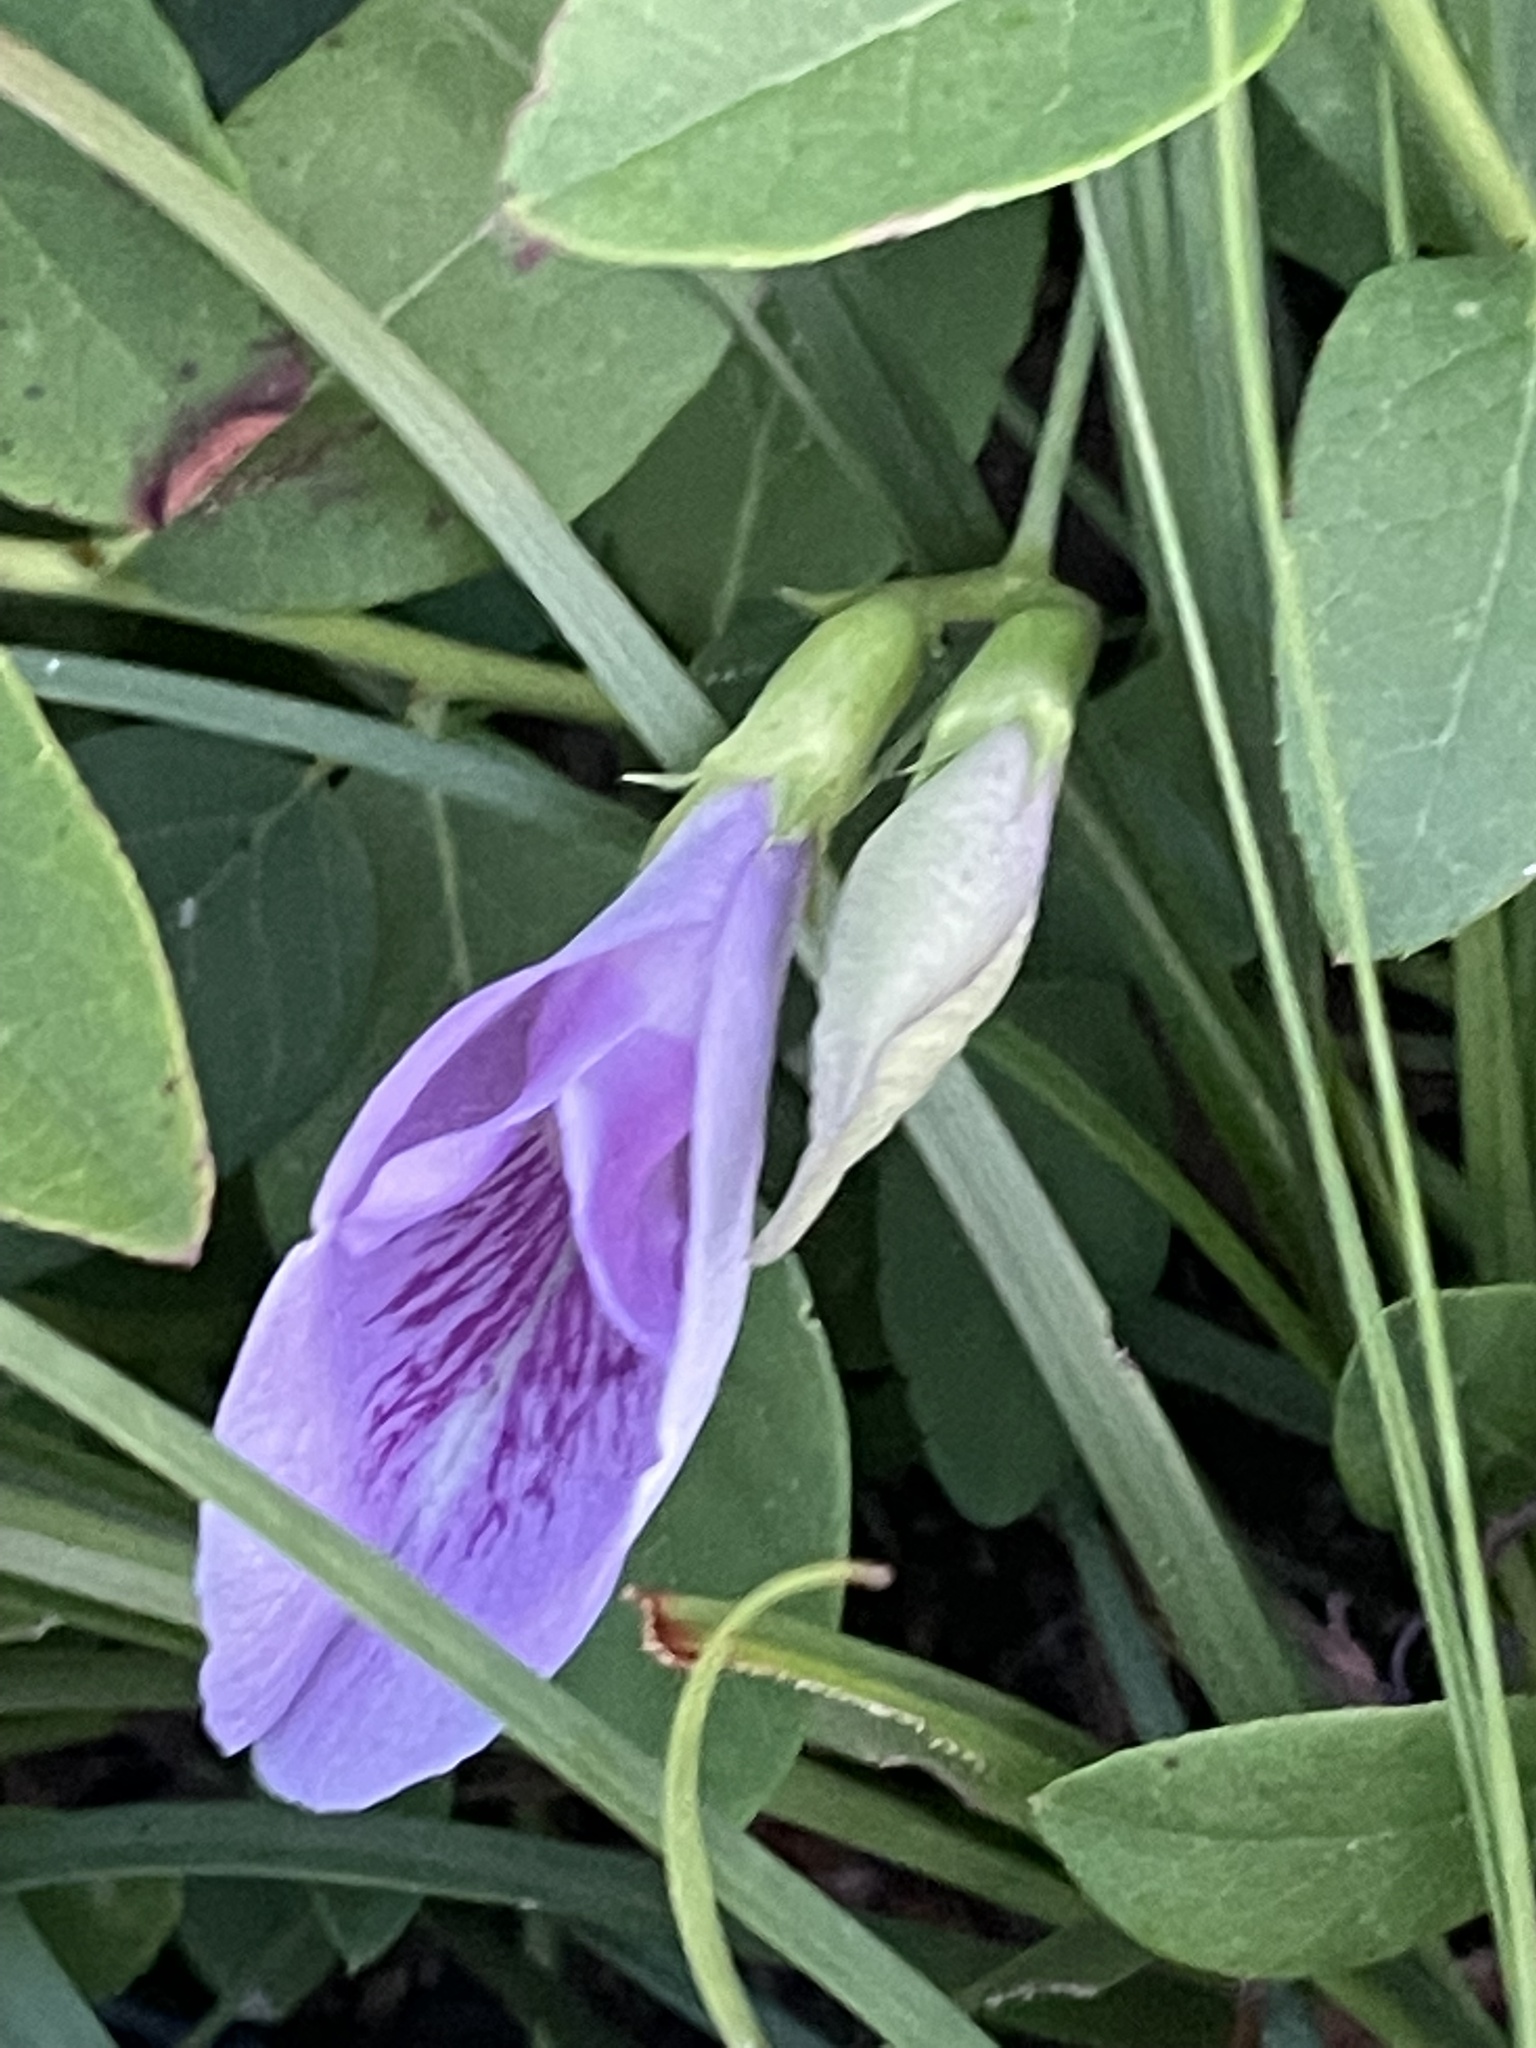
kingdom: Plantae
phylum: Tracheophyta
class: Magnoliopsida
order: Fabales
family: Fabaceae
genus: Clitoria
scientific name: Clitoria mariana
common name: Butterfly-pea
